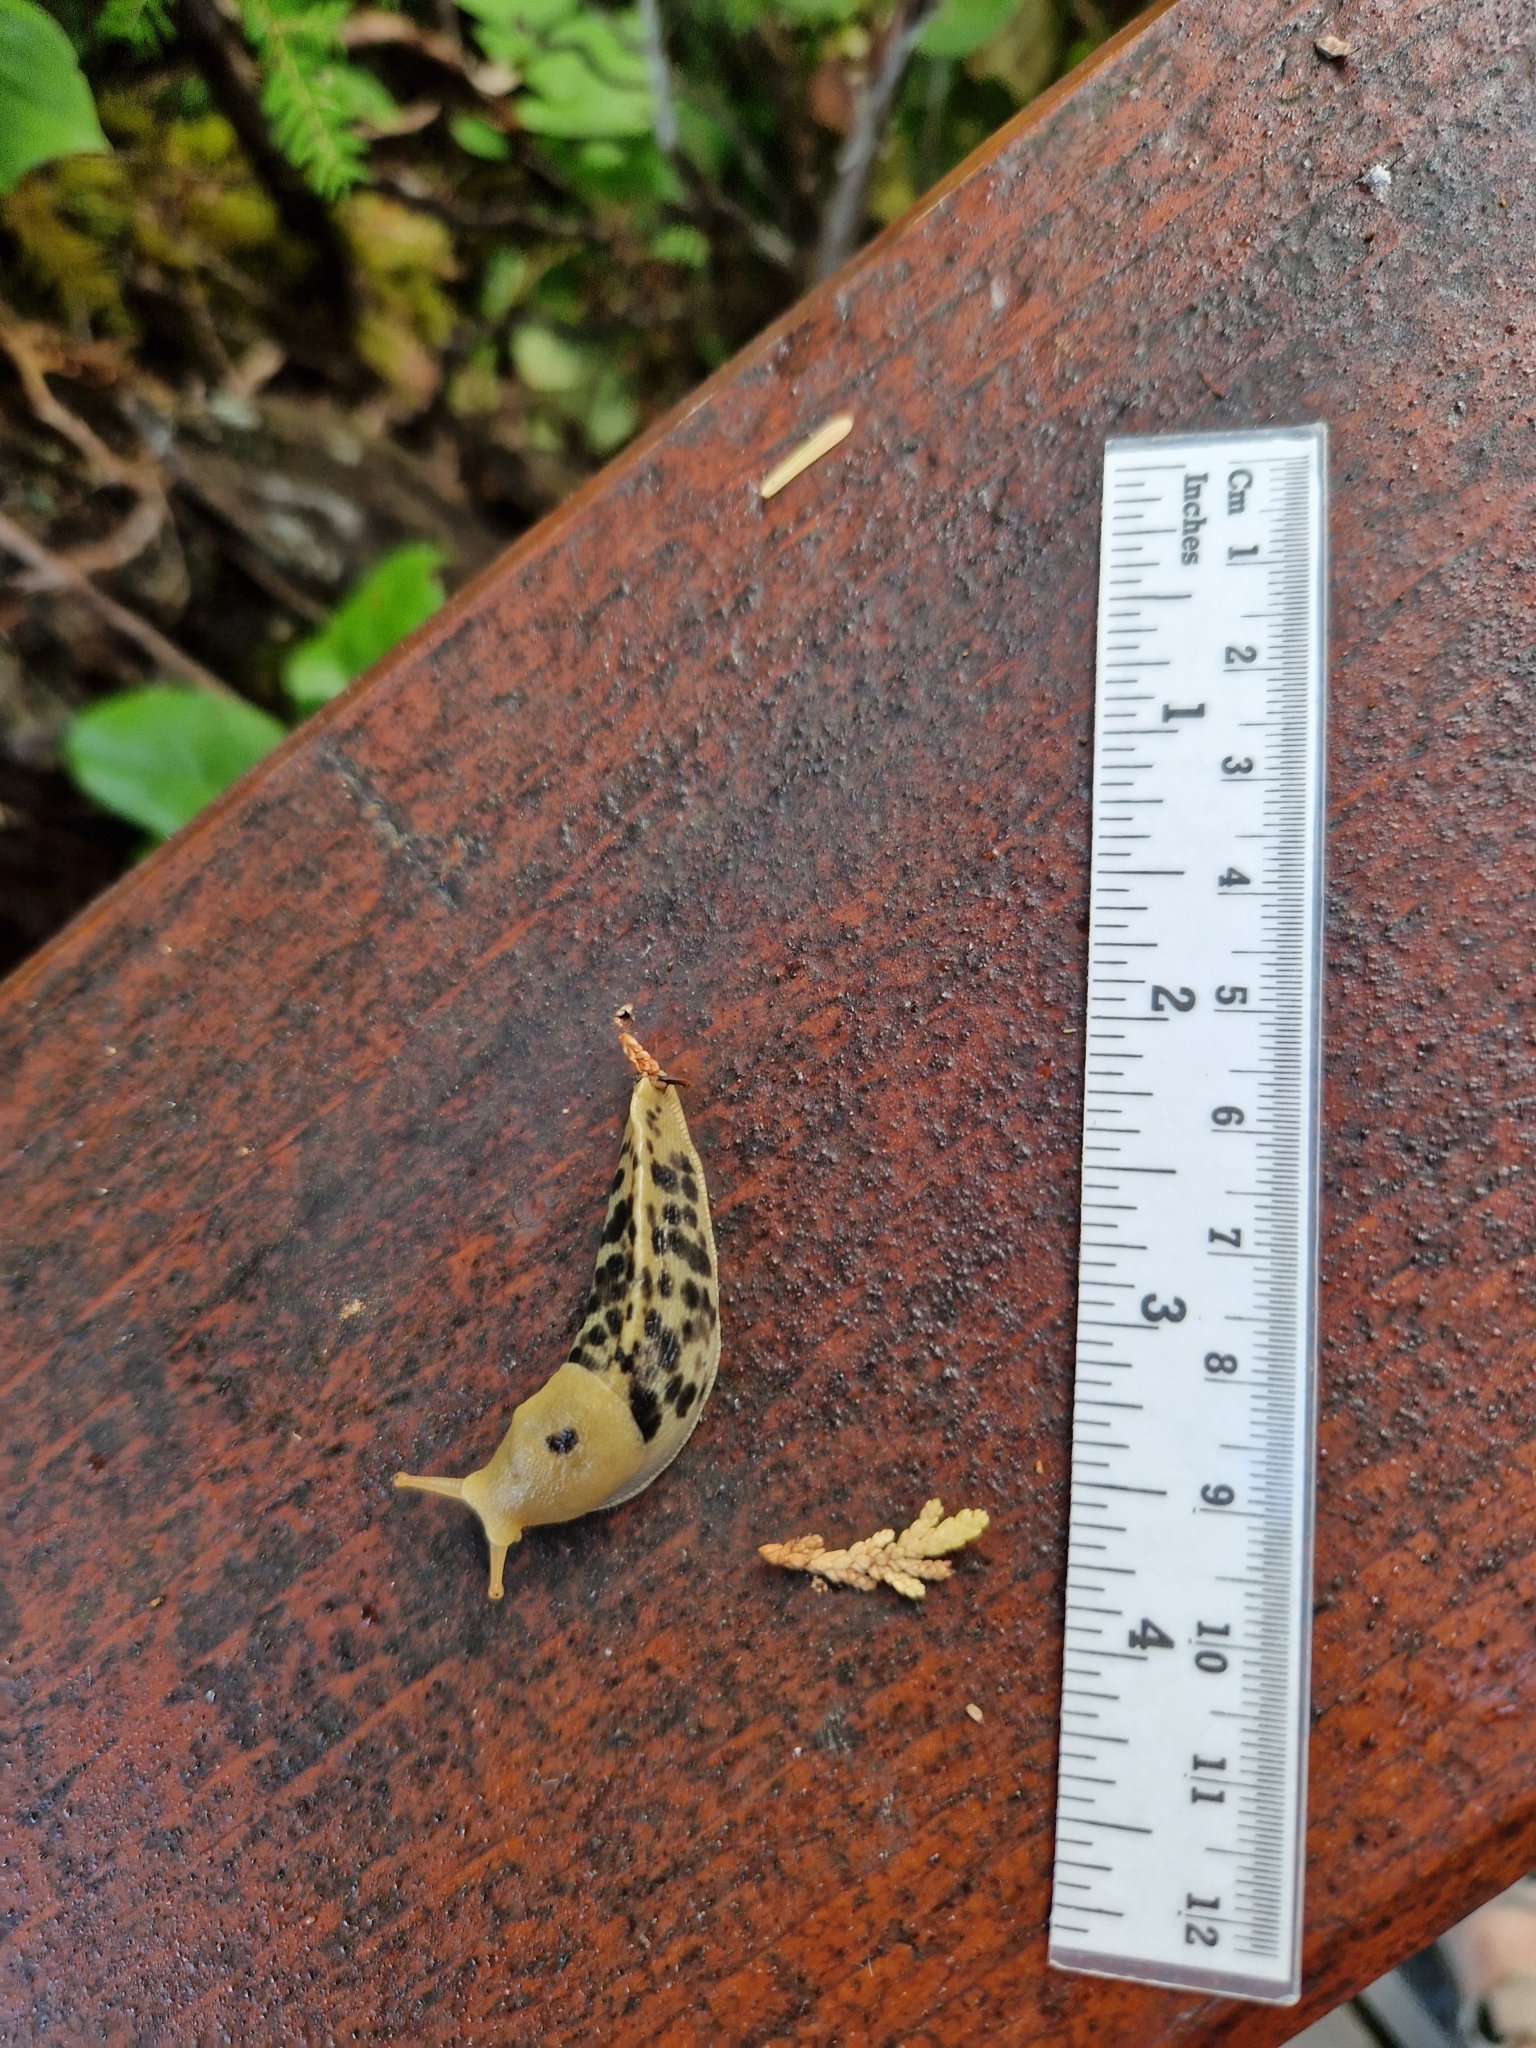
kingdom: Animalia
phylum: Mollusca
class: Gastropoda
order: Stylommatophora
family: Ariolimacidae
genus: Ariolimax
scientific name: Ariolimax columbianus
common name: Pacific banana slug
